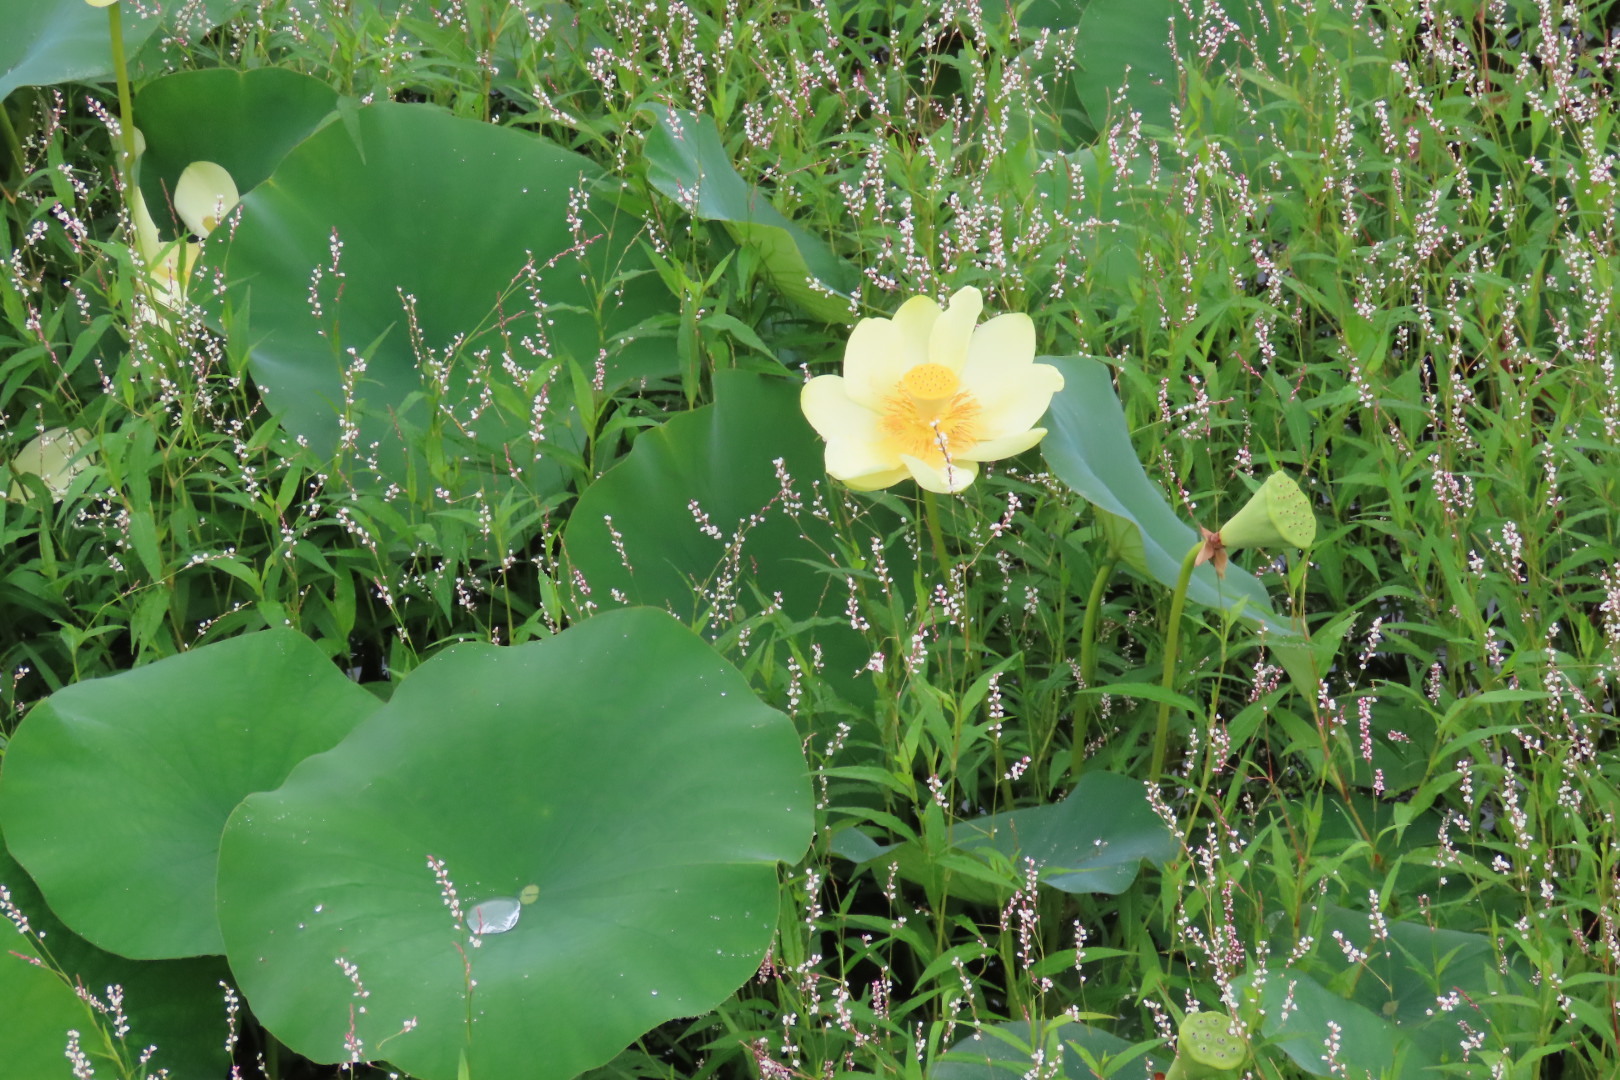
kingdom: Plantae
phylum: Tracheophyta
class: Magnoliopsida
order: Proteales
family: Nelumbonaceae
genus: Nelumbo
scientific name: Nelumbo lutea
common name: American lotus
